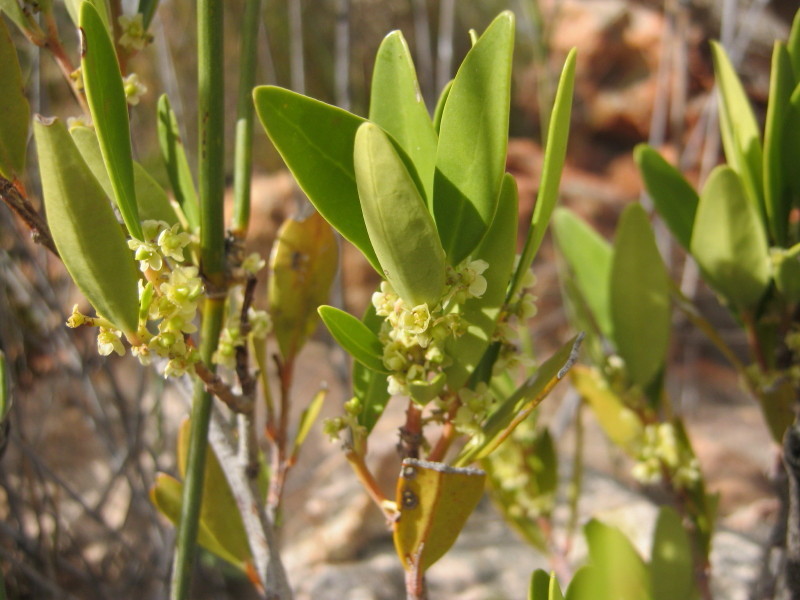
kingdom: Plantae
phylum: Tracheophyta
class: Magnoliopsida
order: Celastrales
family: Celastraceae
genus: Pterocelastrus
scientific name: Pterocelastrus tricuspidatus
